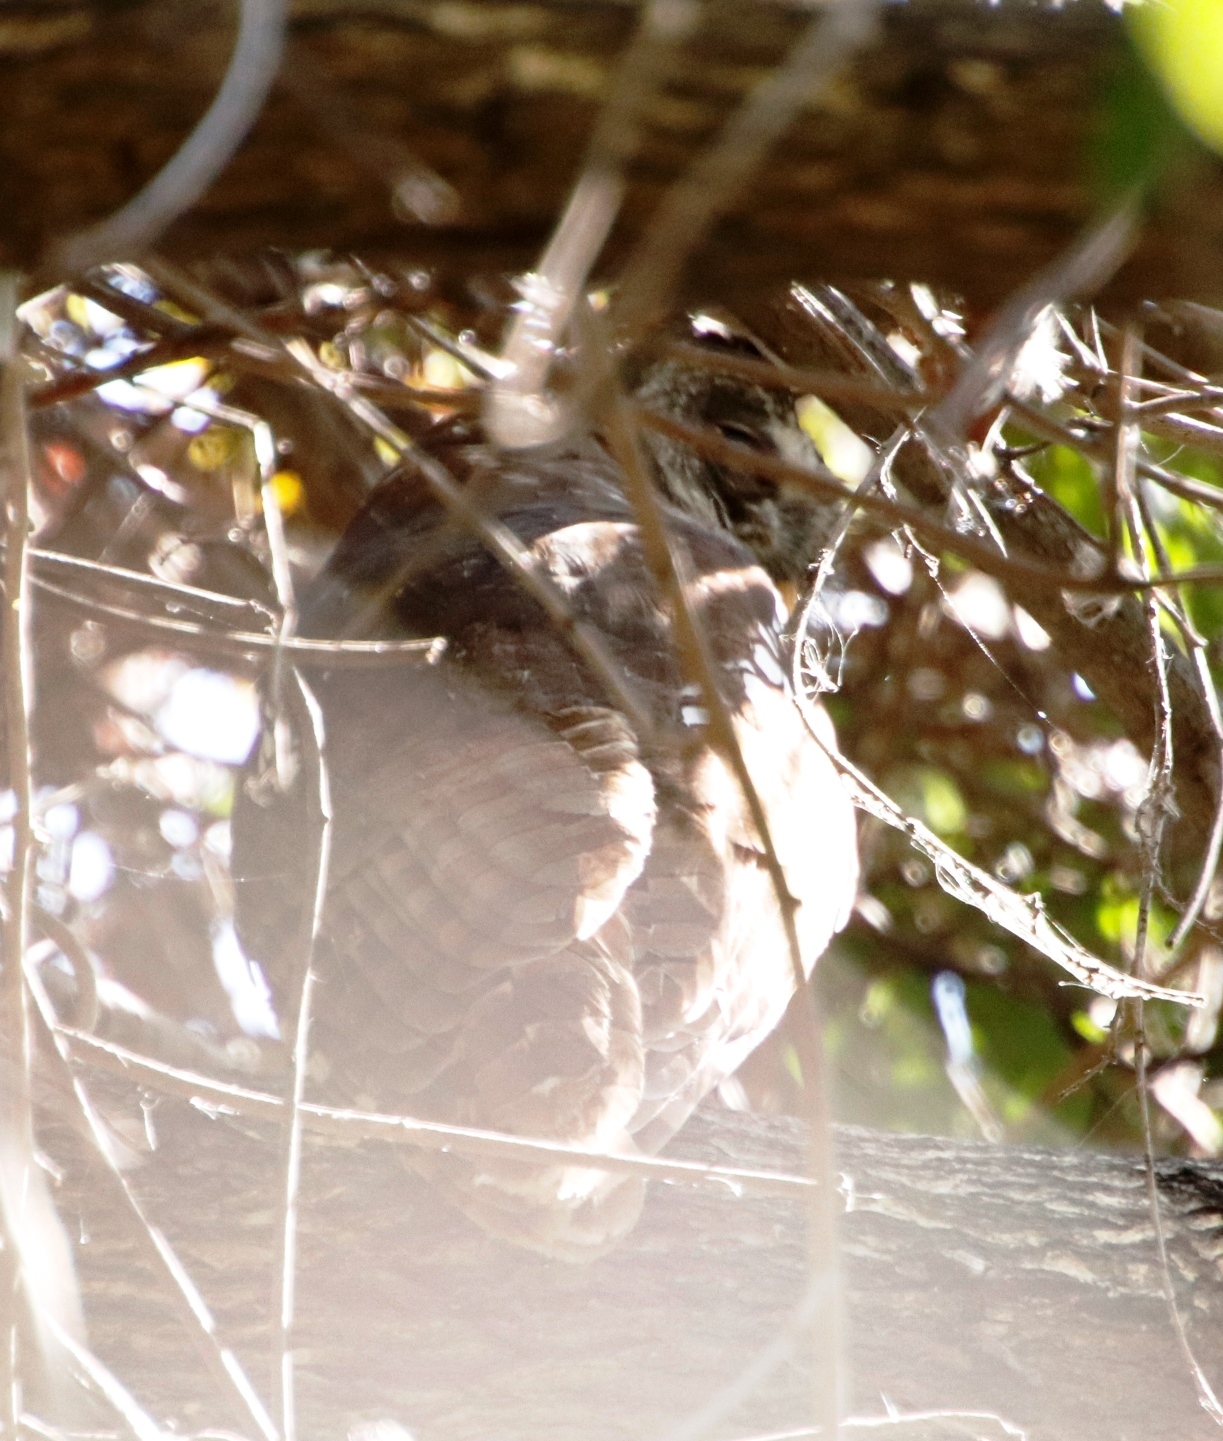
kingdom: Animalia
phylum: Chordata
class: Aves
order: Strigiformes
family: Strigidae
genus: Strix
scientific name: Strix woodfordii
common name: African wood owl
